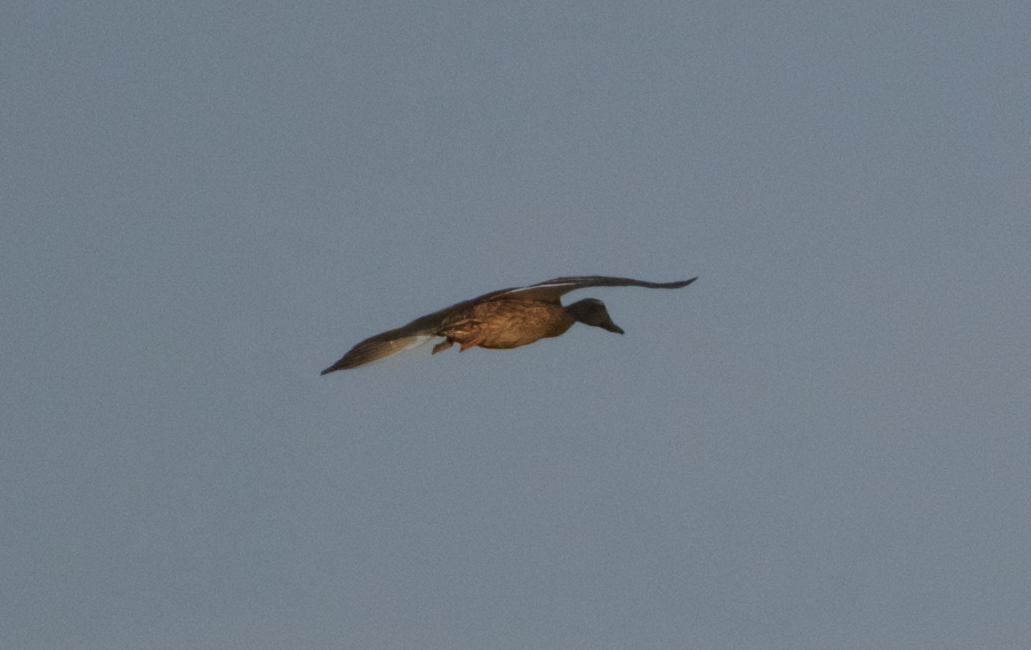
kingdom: Animalia
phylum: Chordata
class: Aves
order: Anseriformes
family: Anatidae
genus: Anas
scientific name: Anas platyrhynchos
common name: Mallard
